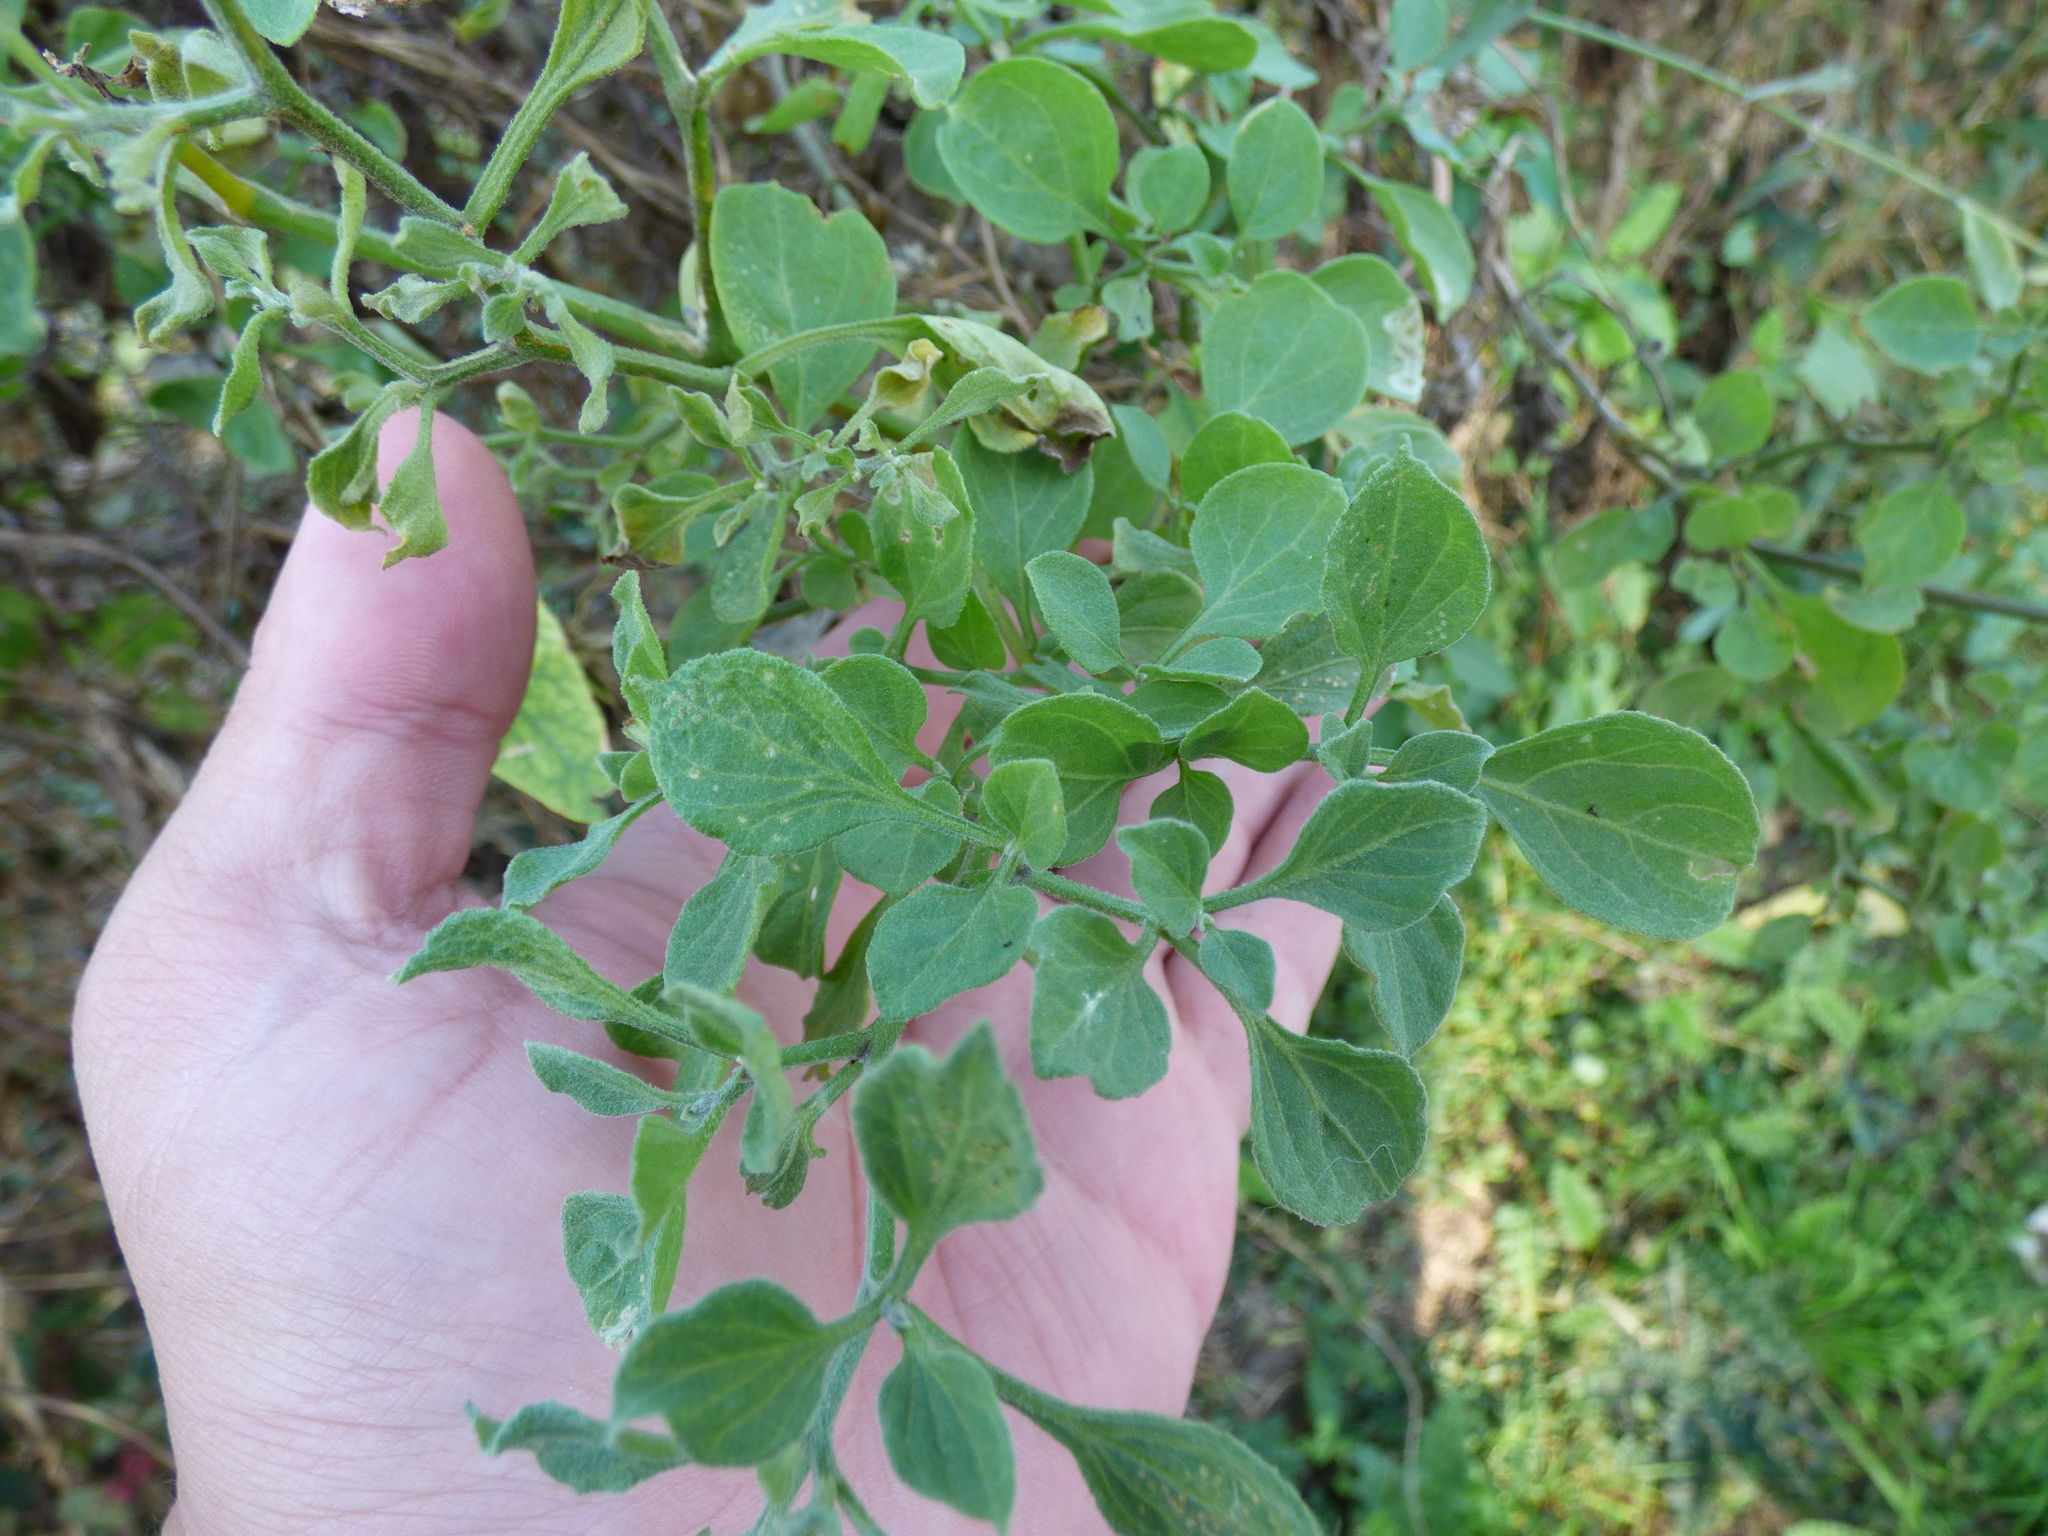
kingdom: Plantae
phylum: Tracheophyta
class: Magnoliopsida
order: Solanales
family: Solanaceae
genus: Salpichroa
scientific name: Salpichroa origanifolia
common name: Lily-of-the-valley-vine
